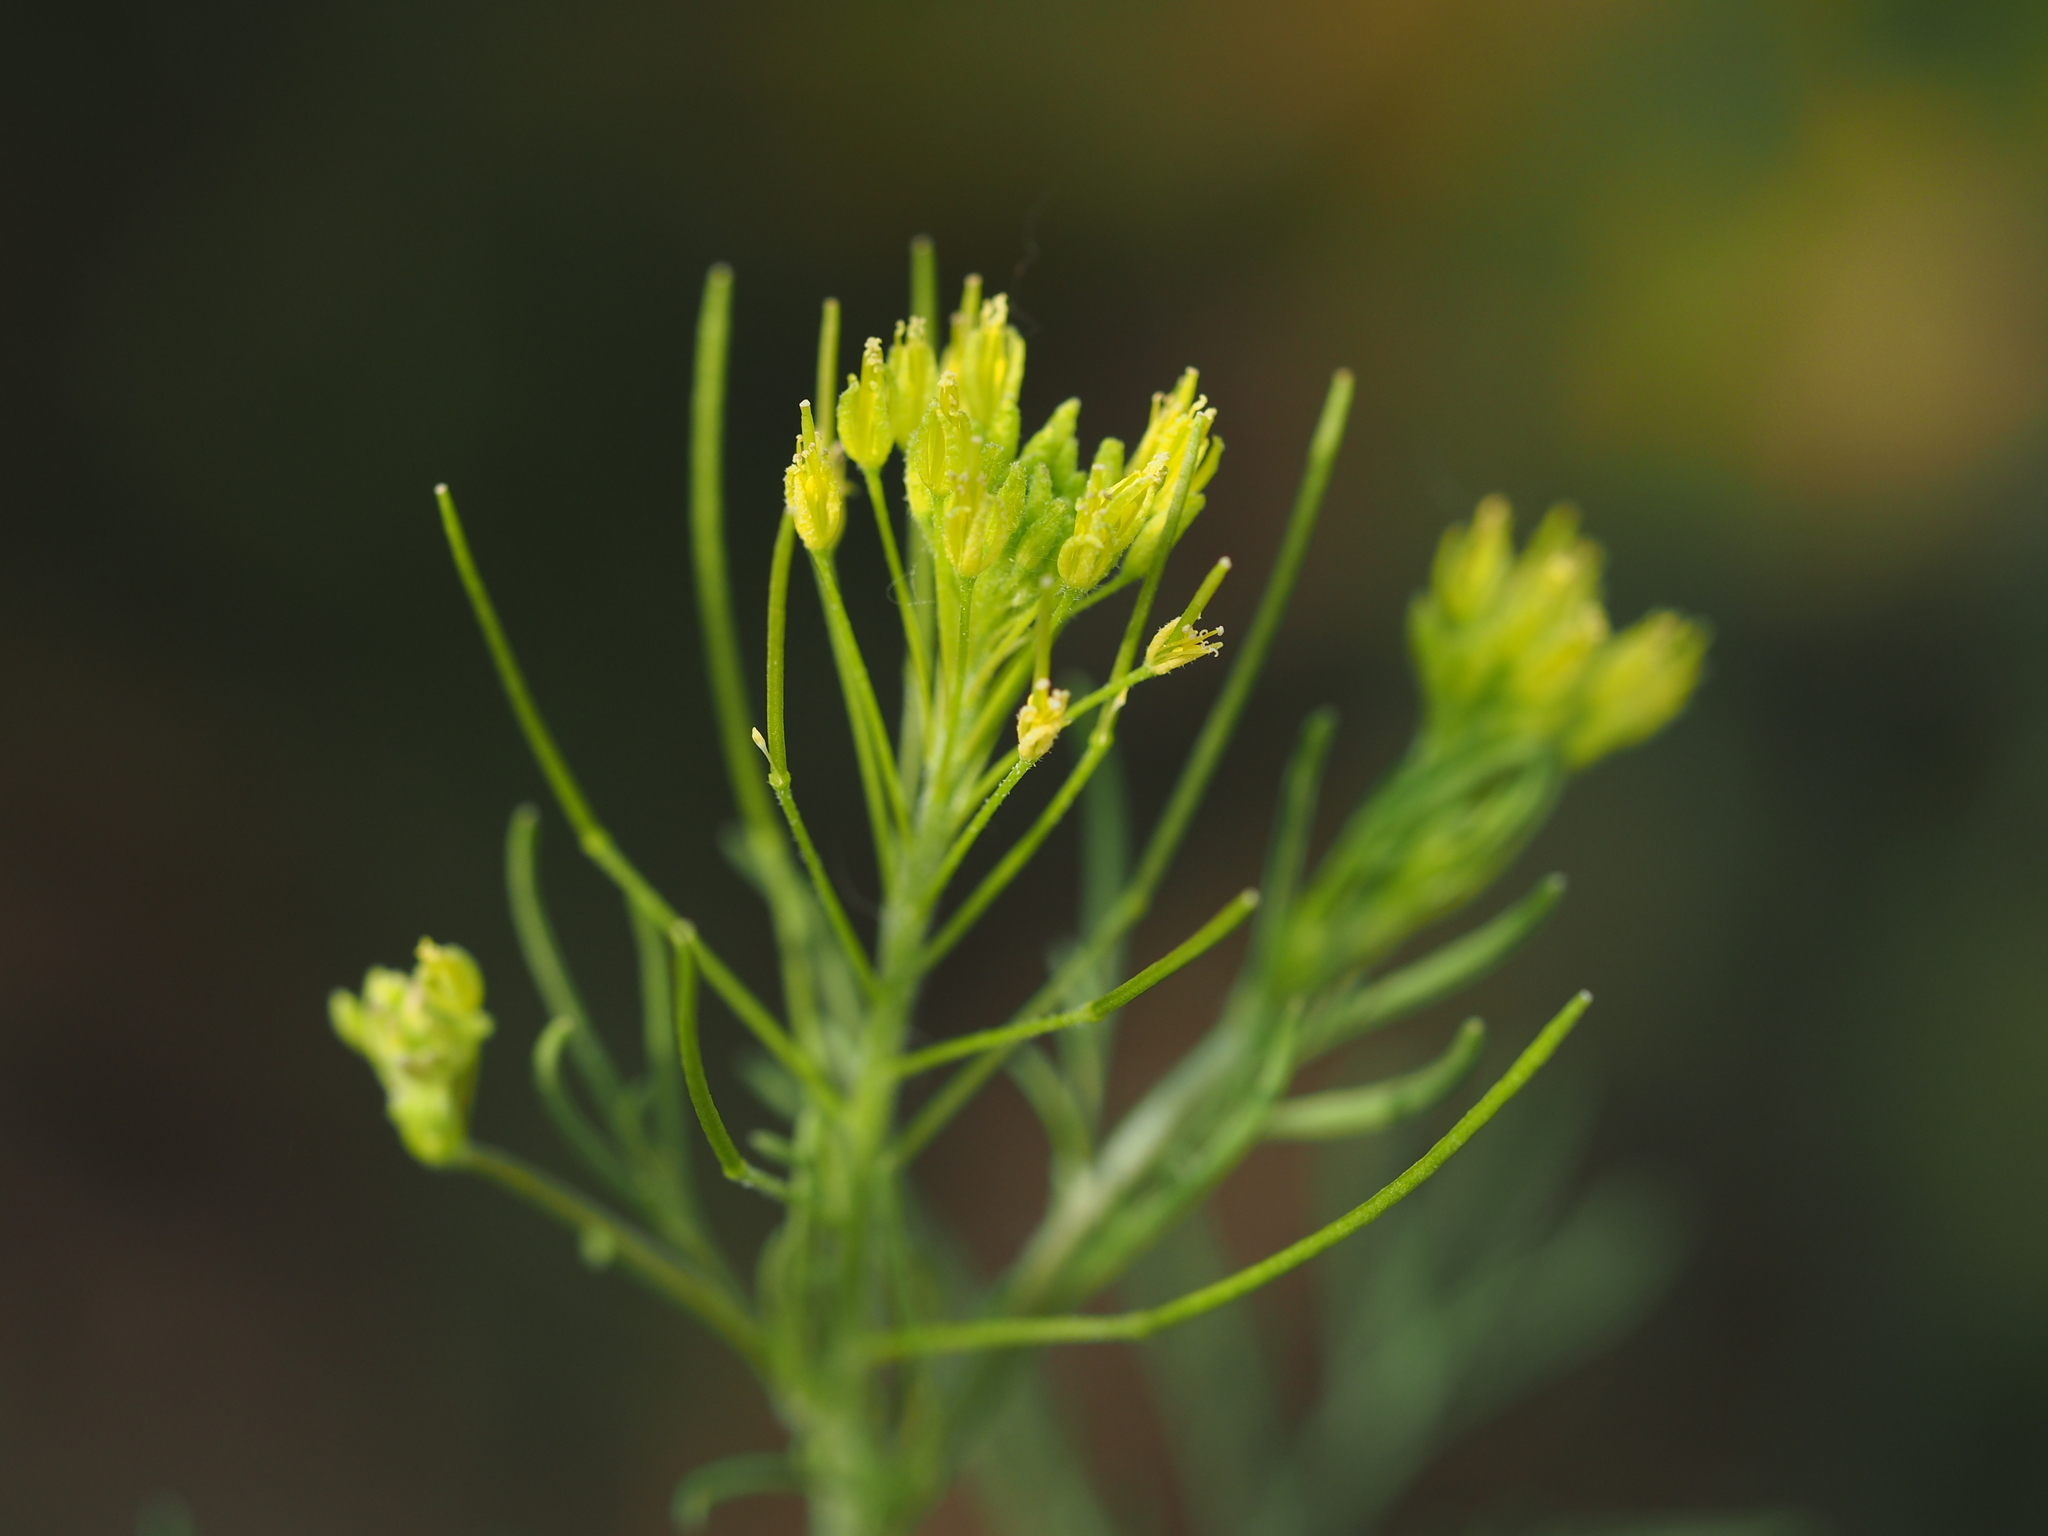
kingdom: Plantae
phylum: Tracheophyta
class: Magnoliopsida
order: Brassicales
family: Brassicaceae
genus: Descurainia
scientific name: Descurainia sophia
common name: Flixweed
